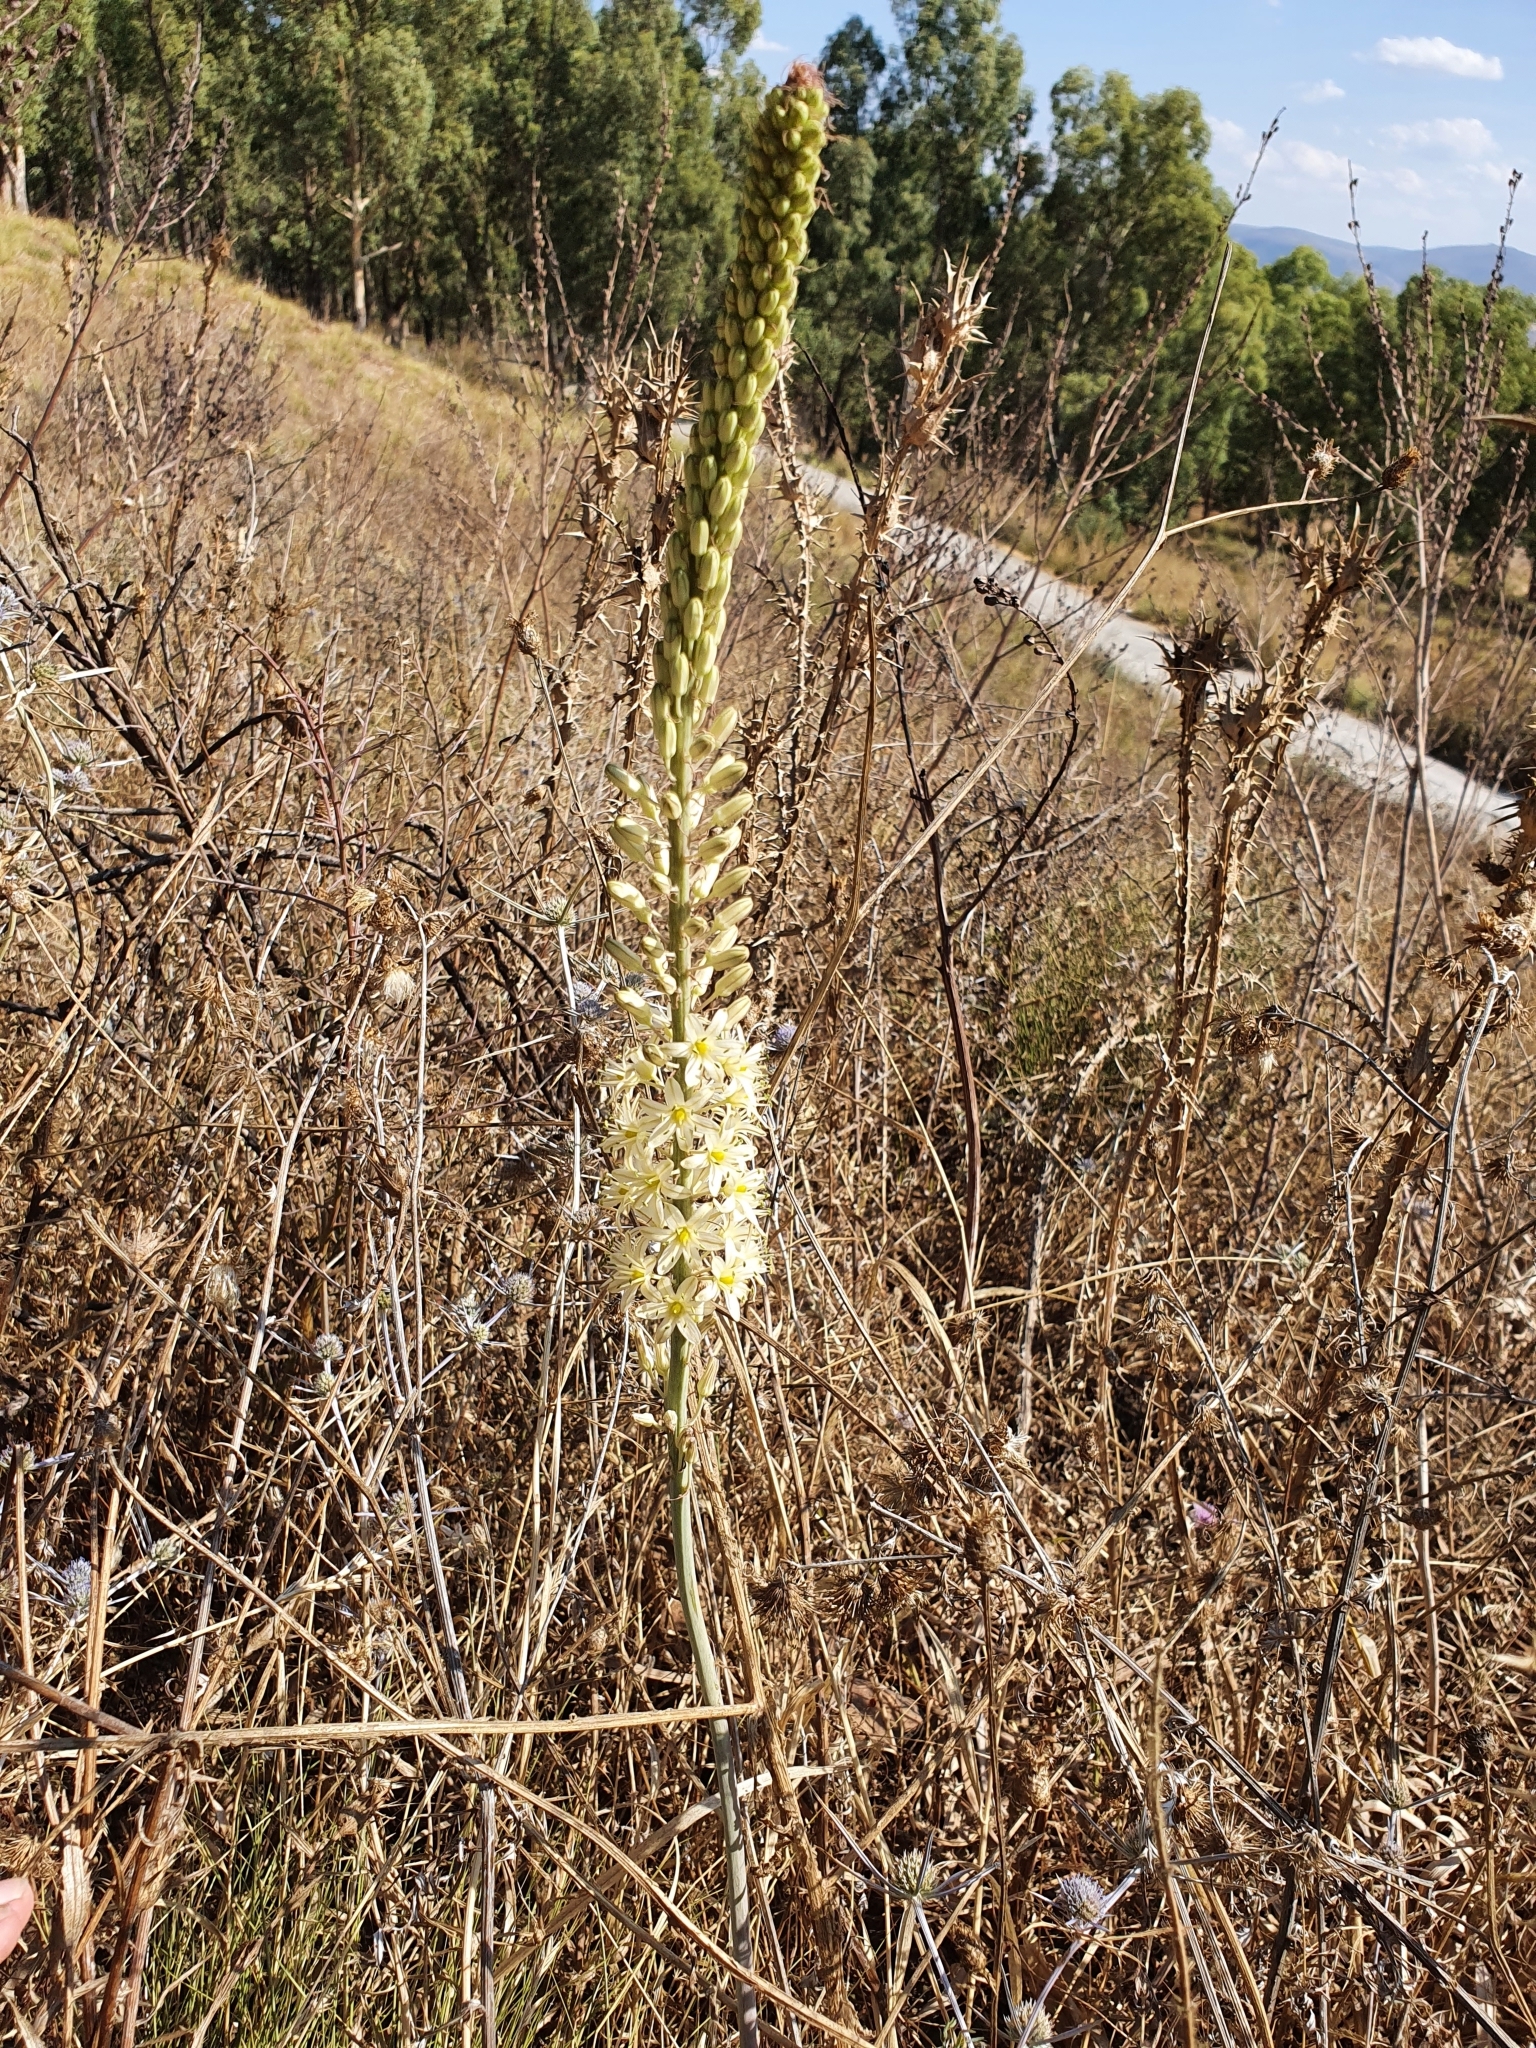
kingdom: Plantae
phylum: Tracheophyta
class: Liliopsida
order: Asparagales
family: Asparagaceae
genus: Drimia
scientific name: Drimia anthericoides
